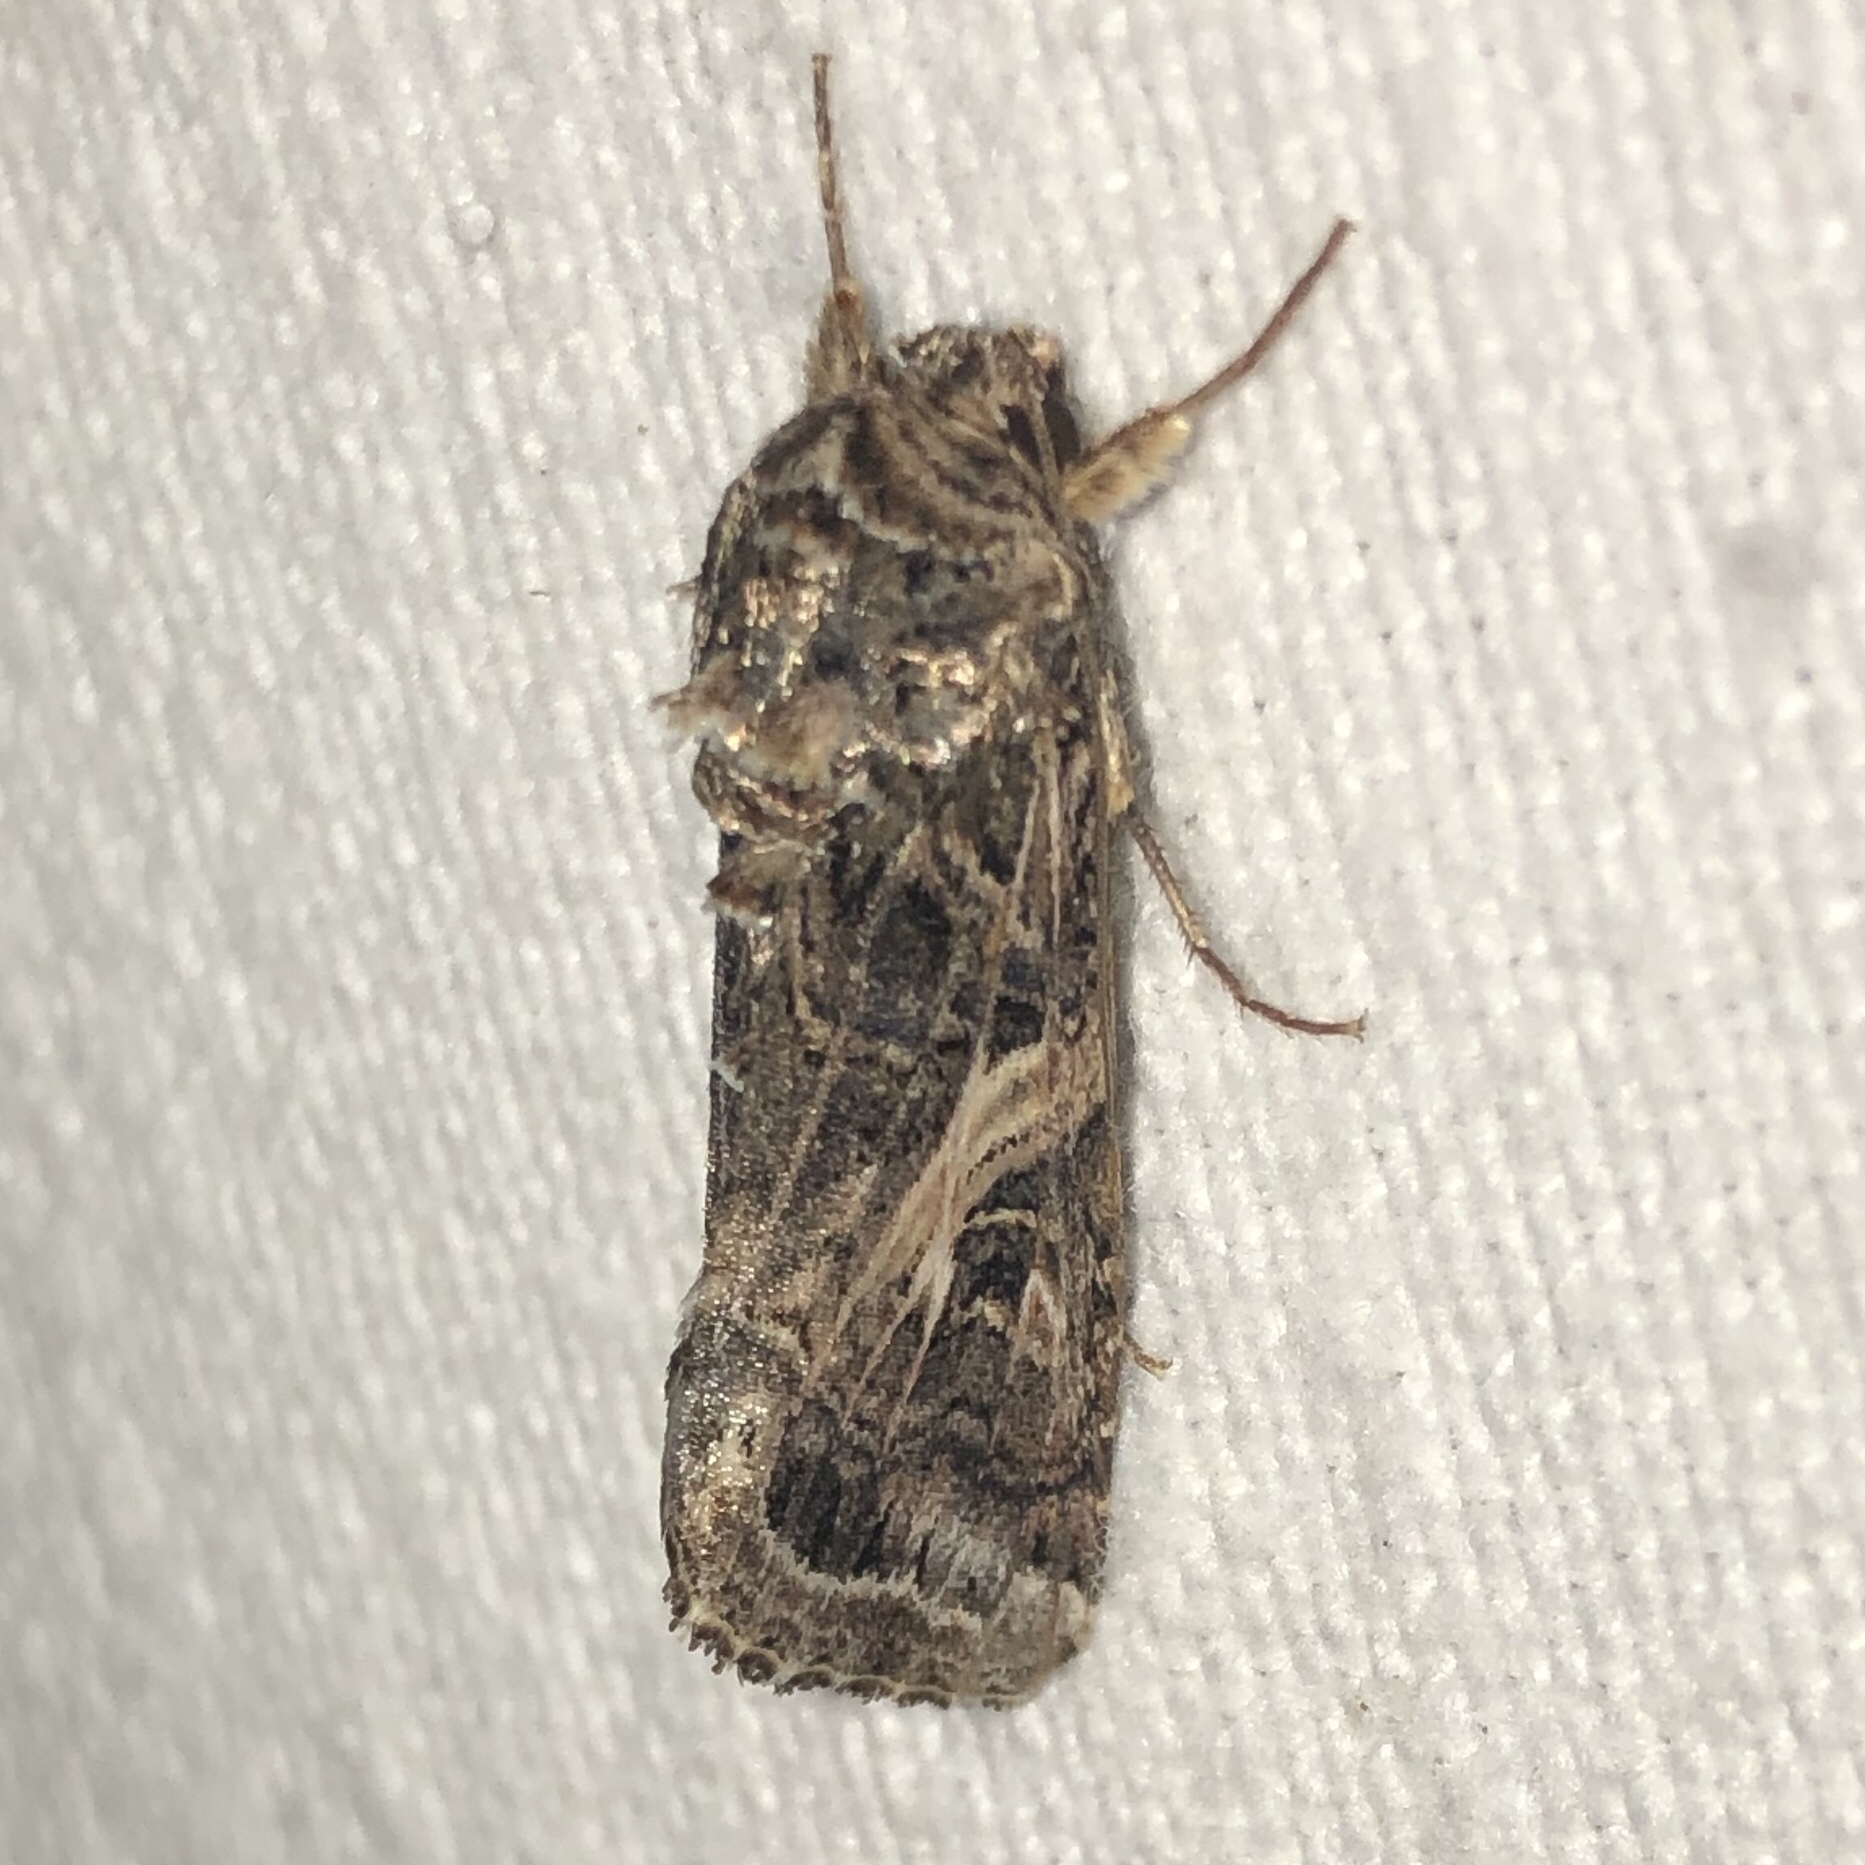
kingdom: Animalia
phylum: Arthropoda
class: Insecta
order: Lepidoptera
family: Noctuidae
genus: Spodoptera
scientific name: Spodoptera ornithogalli
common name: Yellow-striped armyworm
